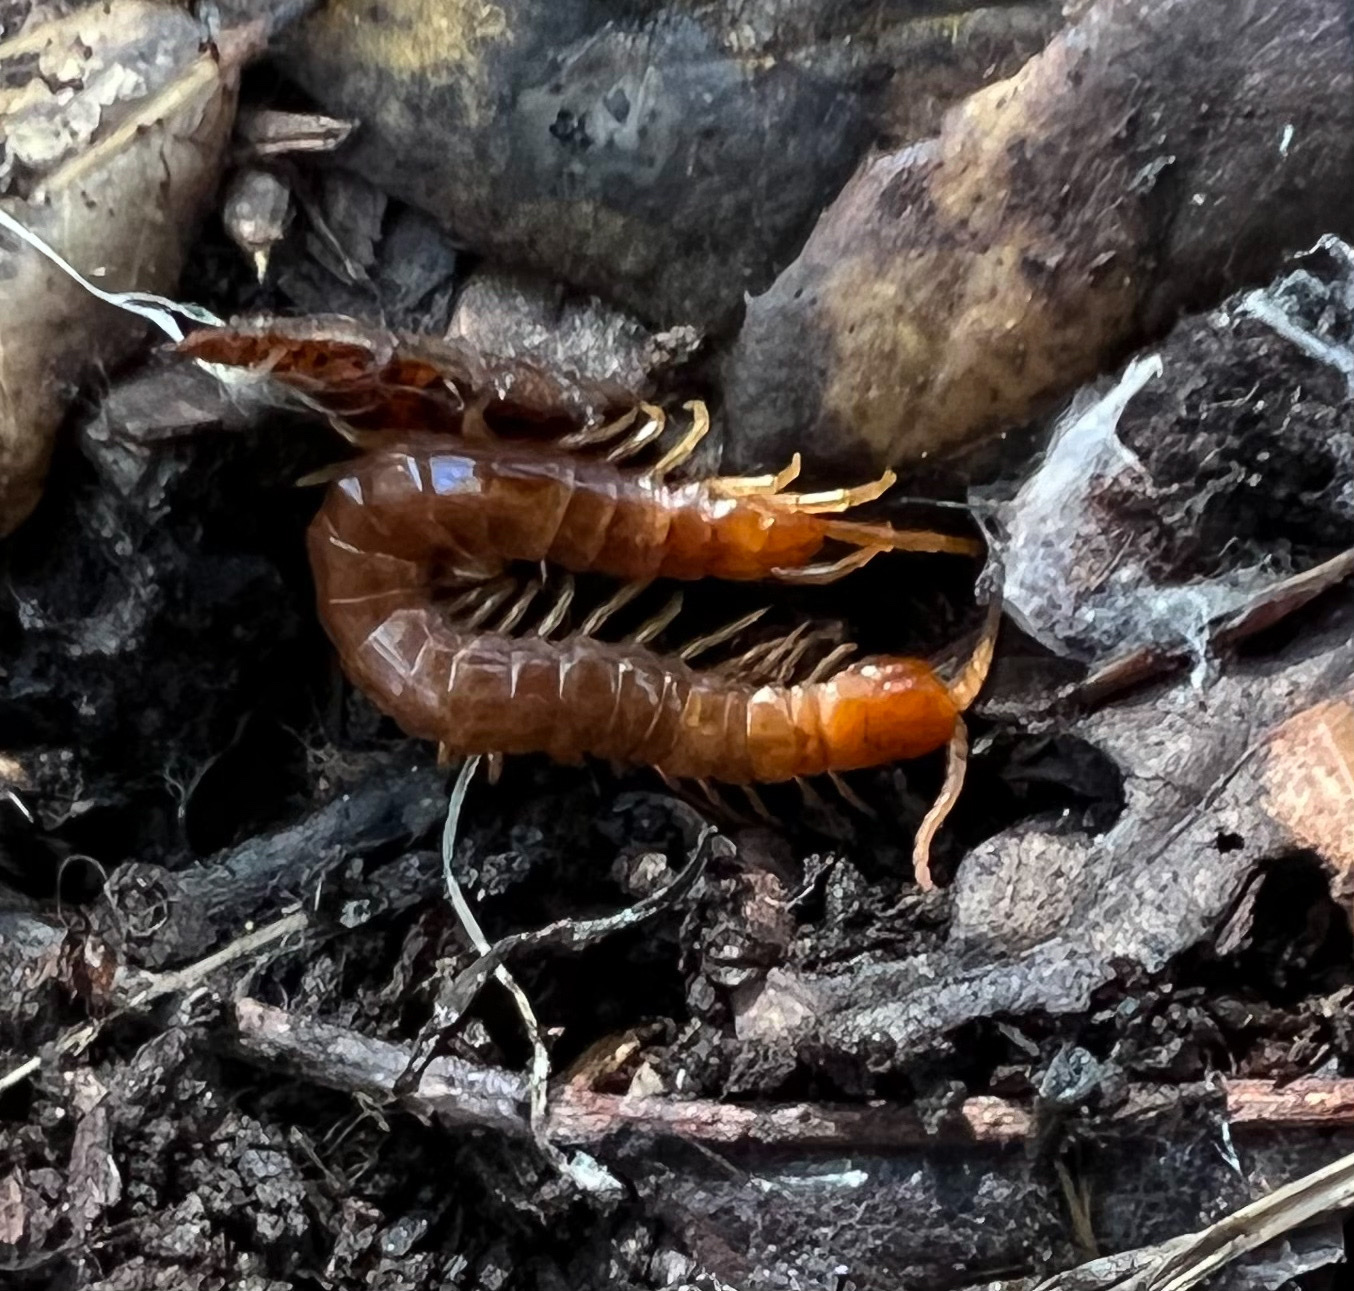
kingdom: Animalia
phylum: Arthropoda
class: Chilopoda
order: Scolopendromorpha
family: Scolopocryptopidae
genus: Scolopocryptops
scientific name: Scolopocryptops gracilis
